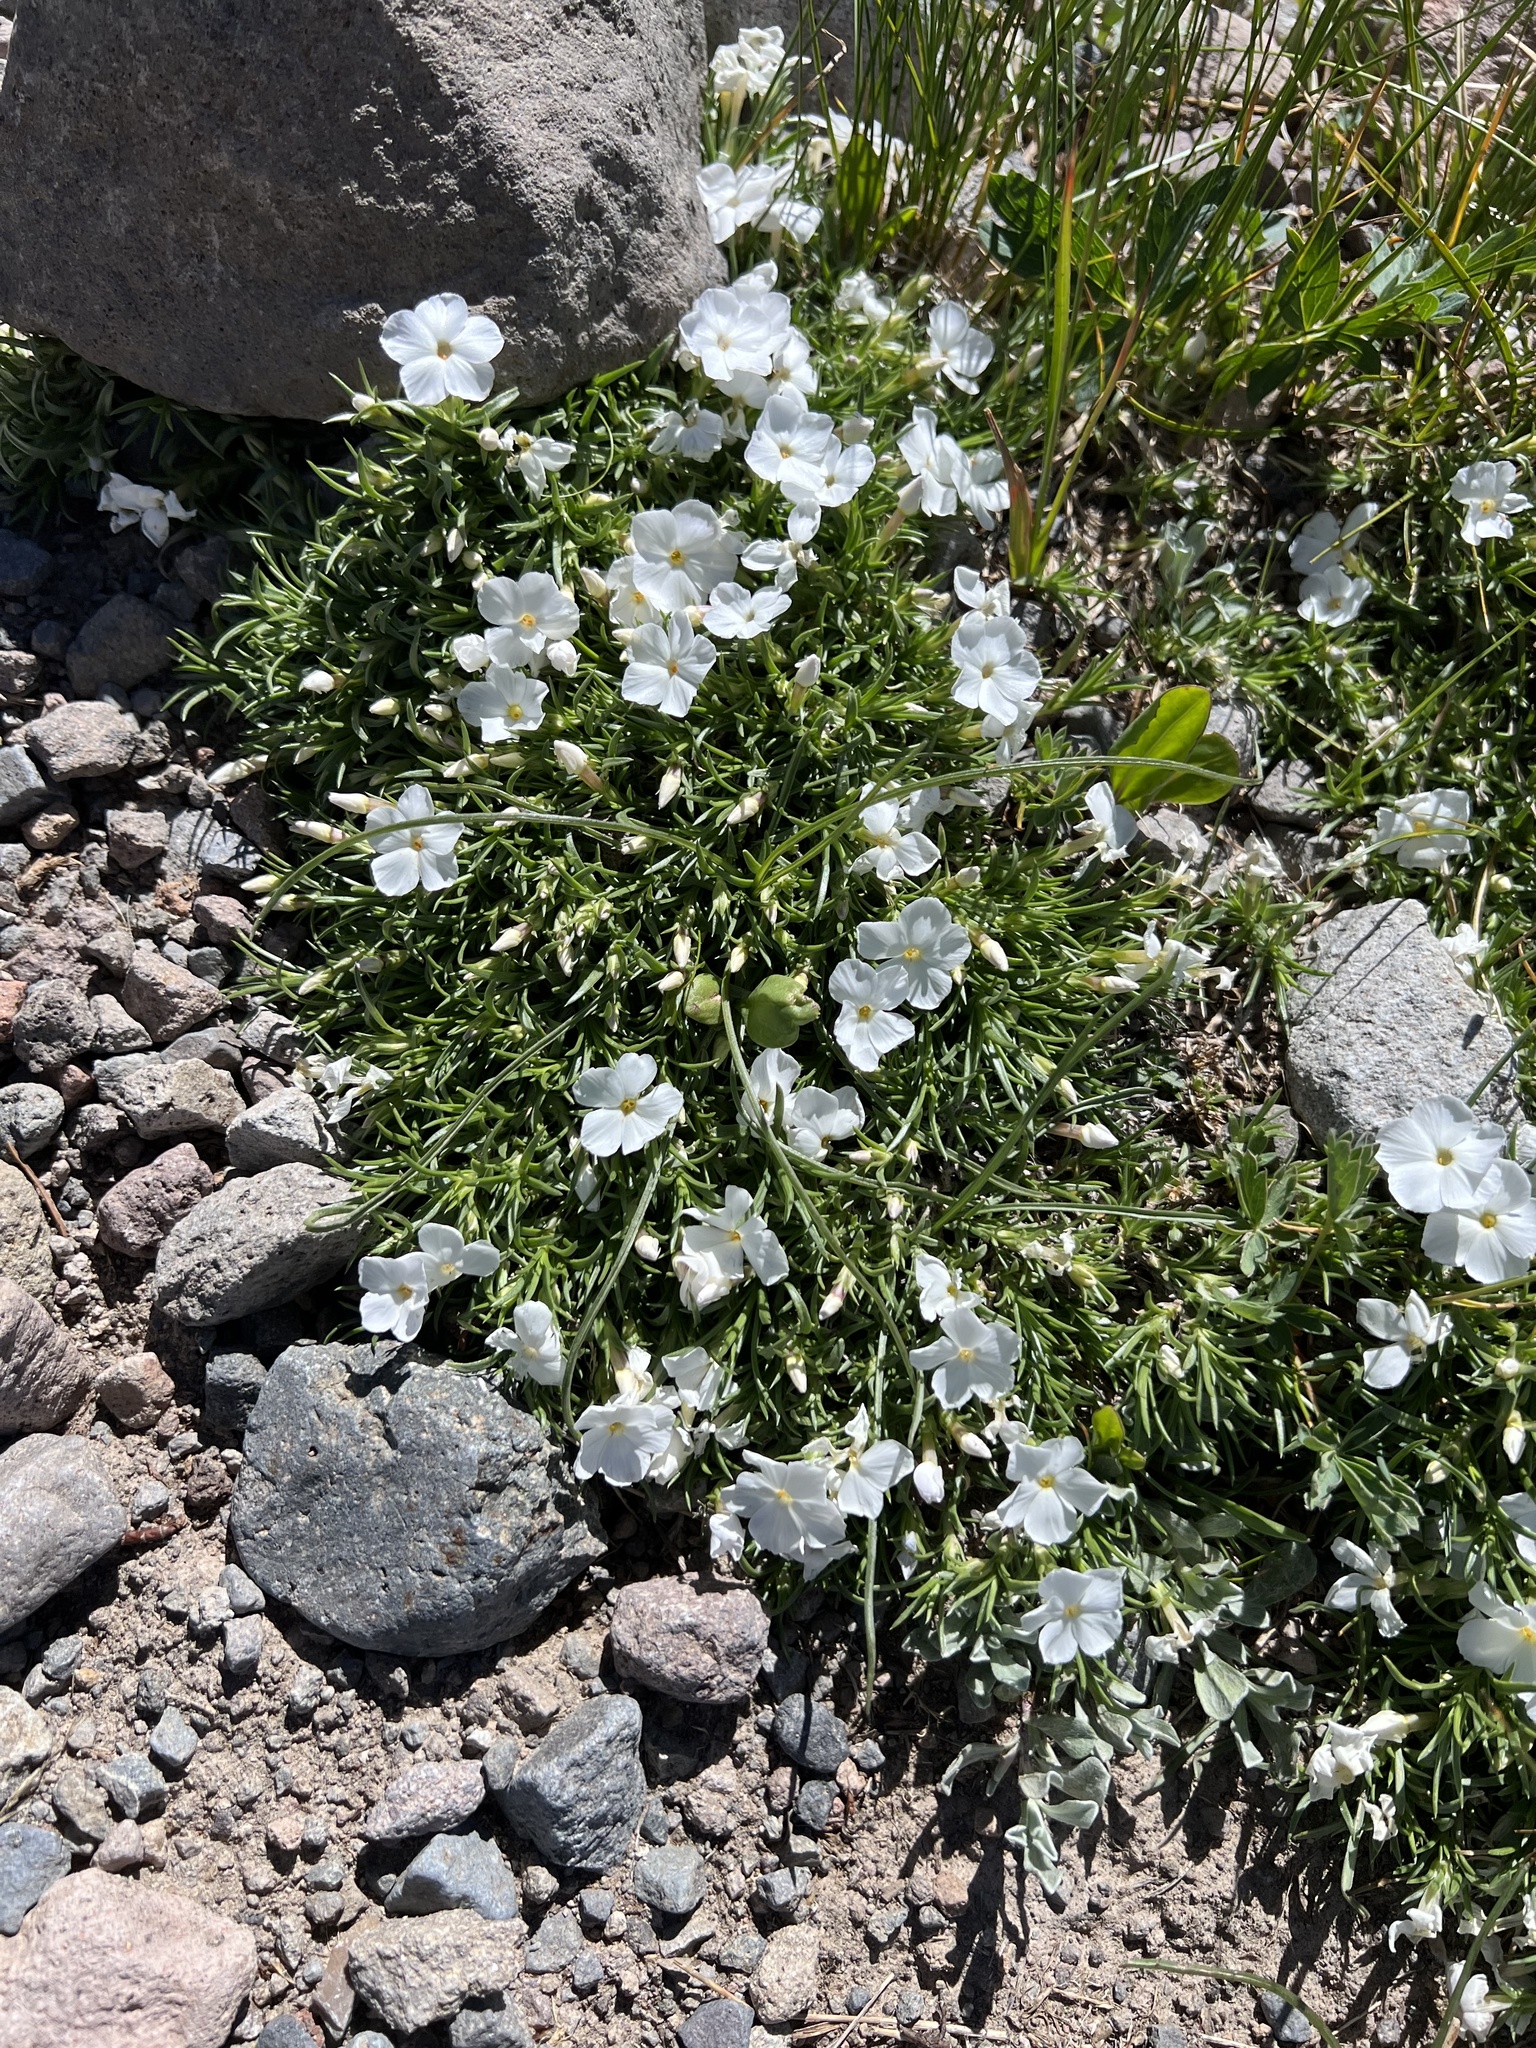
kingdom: Plantae
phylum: Tracheophyta
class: Magnoliopsida
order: Ericales
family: Polemoniaceae
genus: Phlox
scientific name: Phlox multiflora
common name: Rocky mountain phlox
